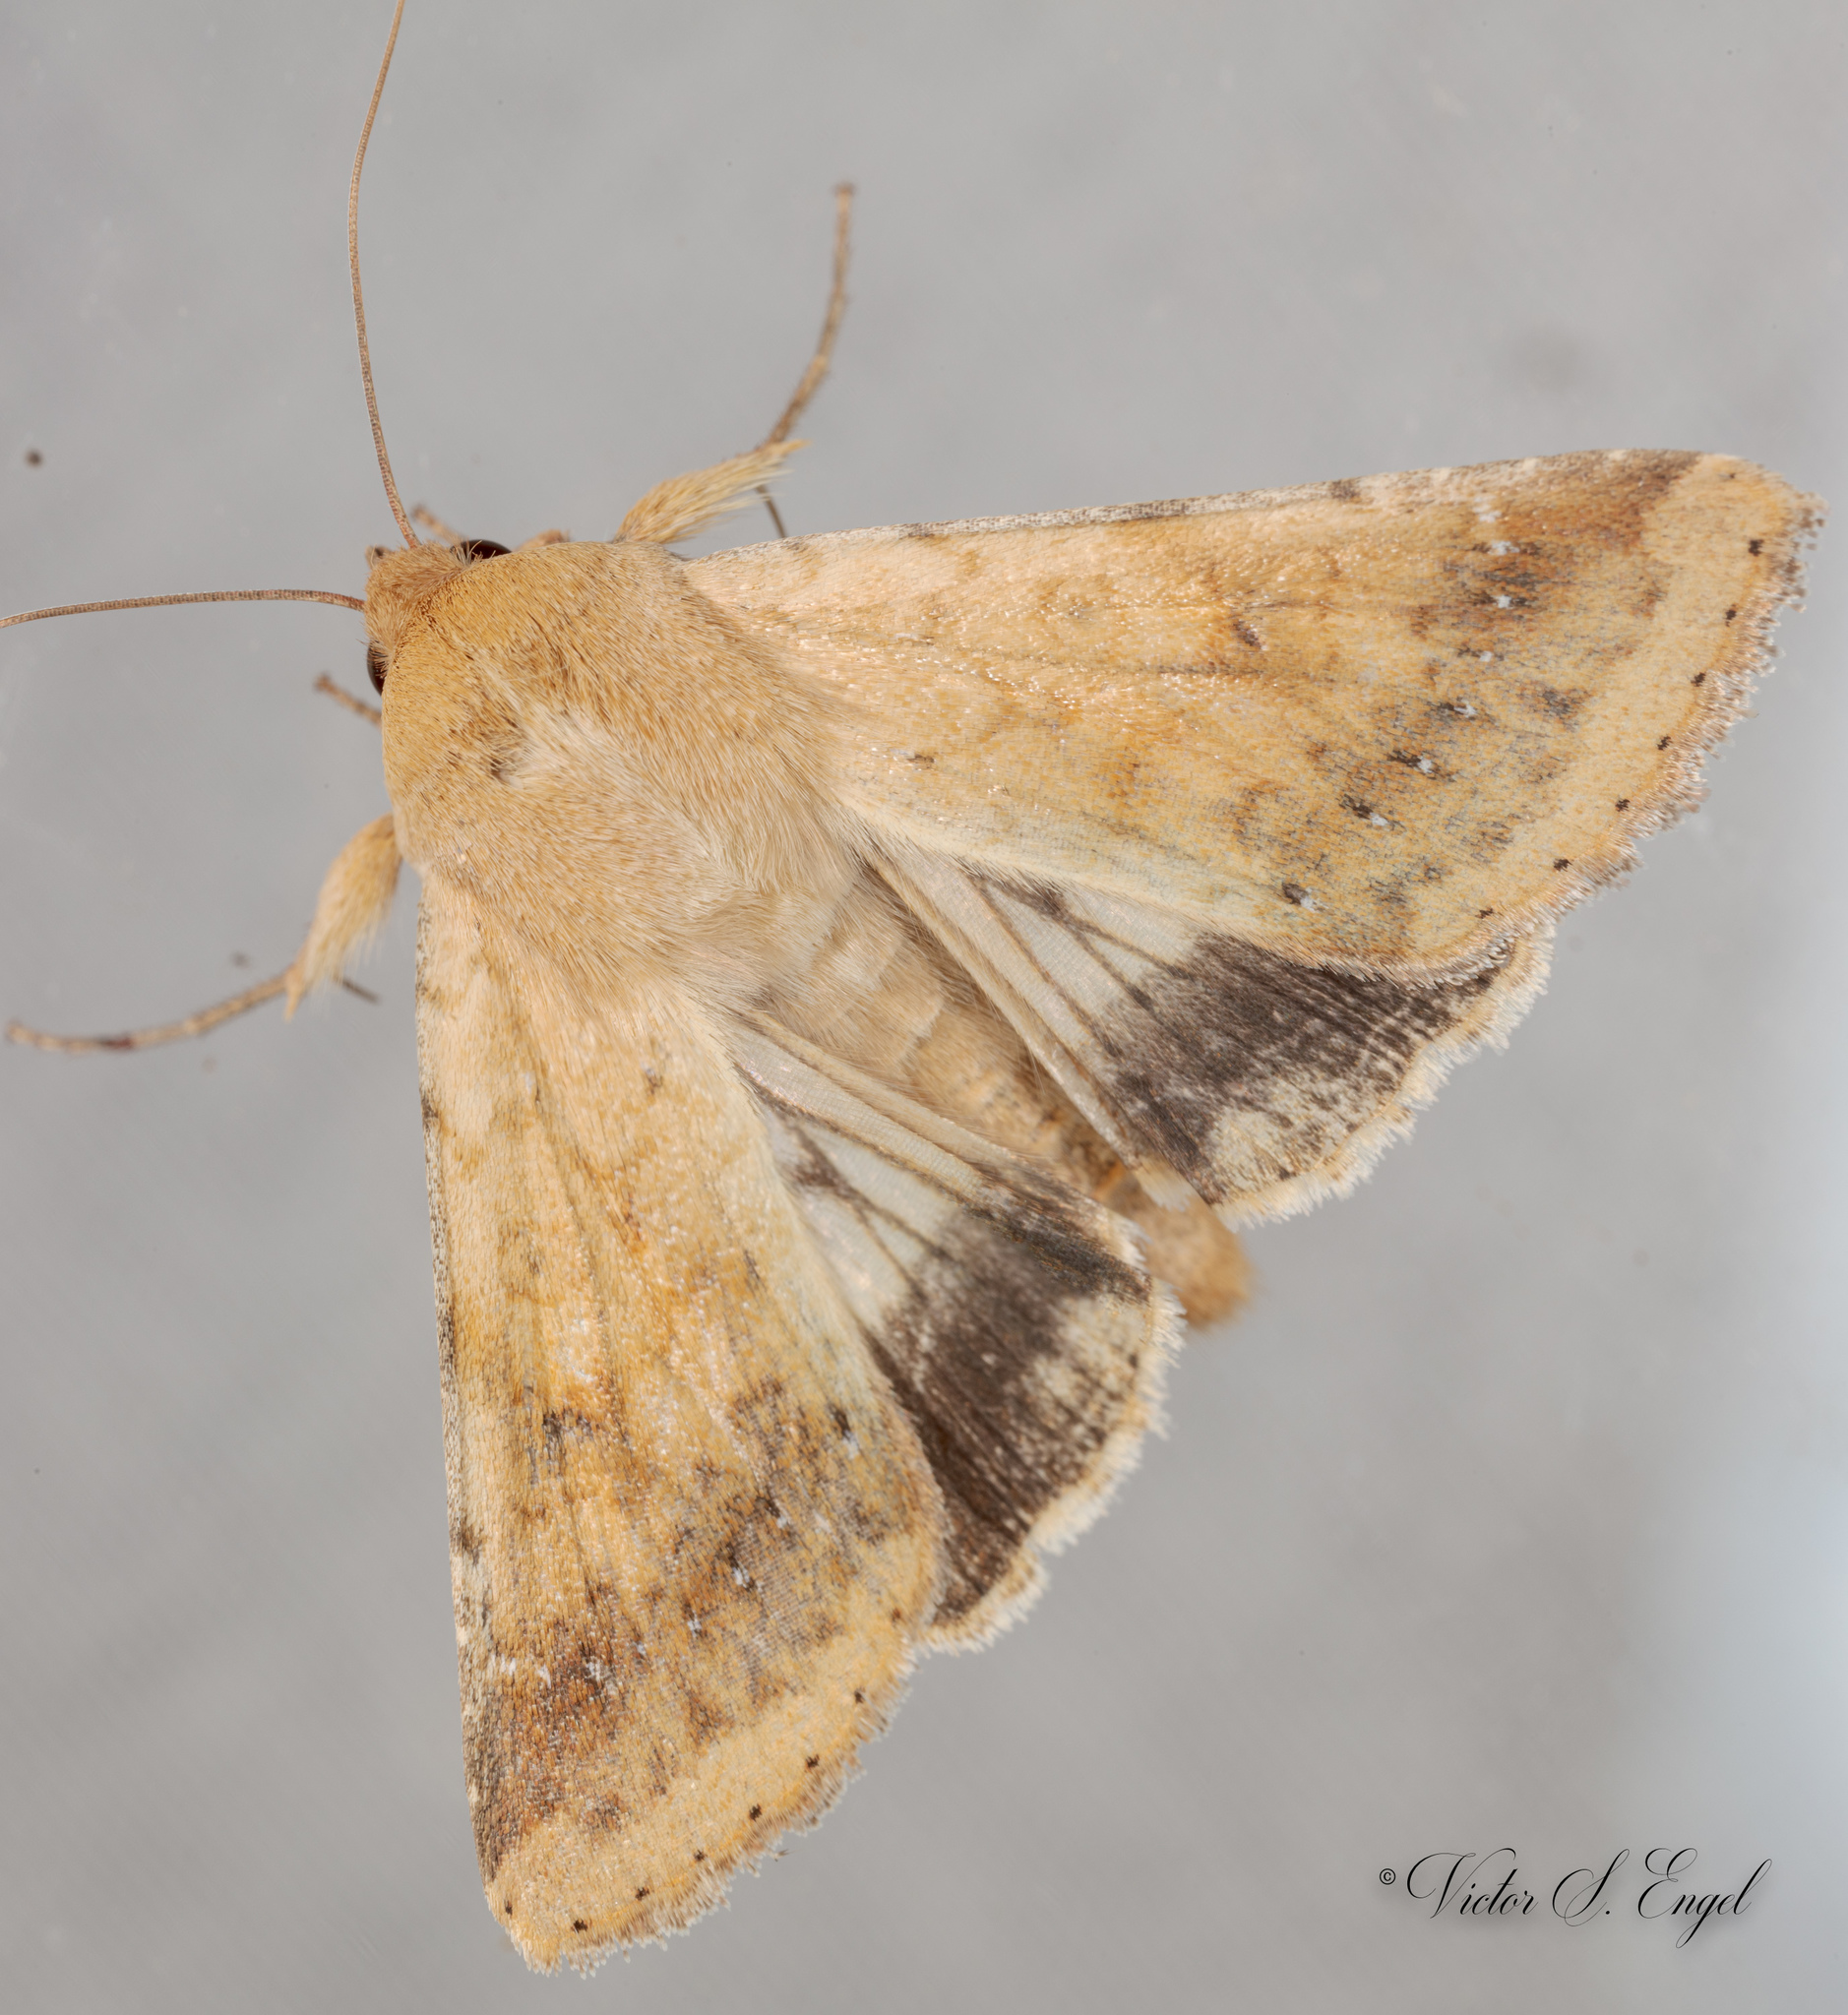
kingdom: Animalia
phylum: Arthropoda
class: Insecta
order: Lepidoptera
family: Noctuidae
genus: Helicoverpa
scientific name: Helicoverpa zea
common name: Bollworm
